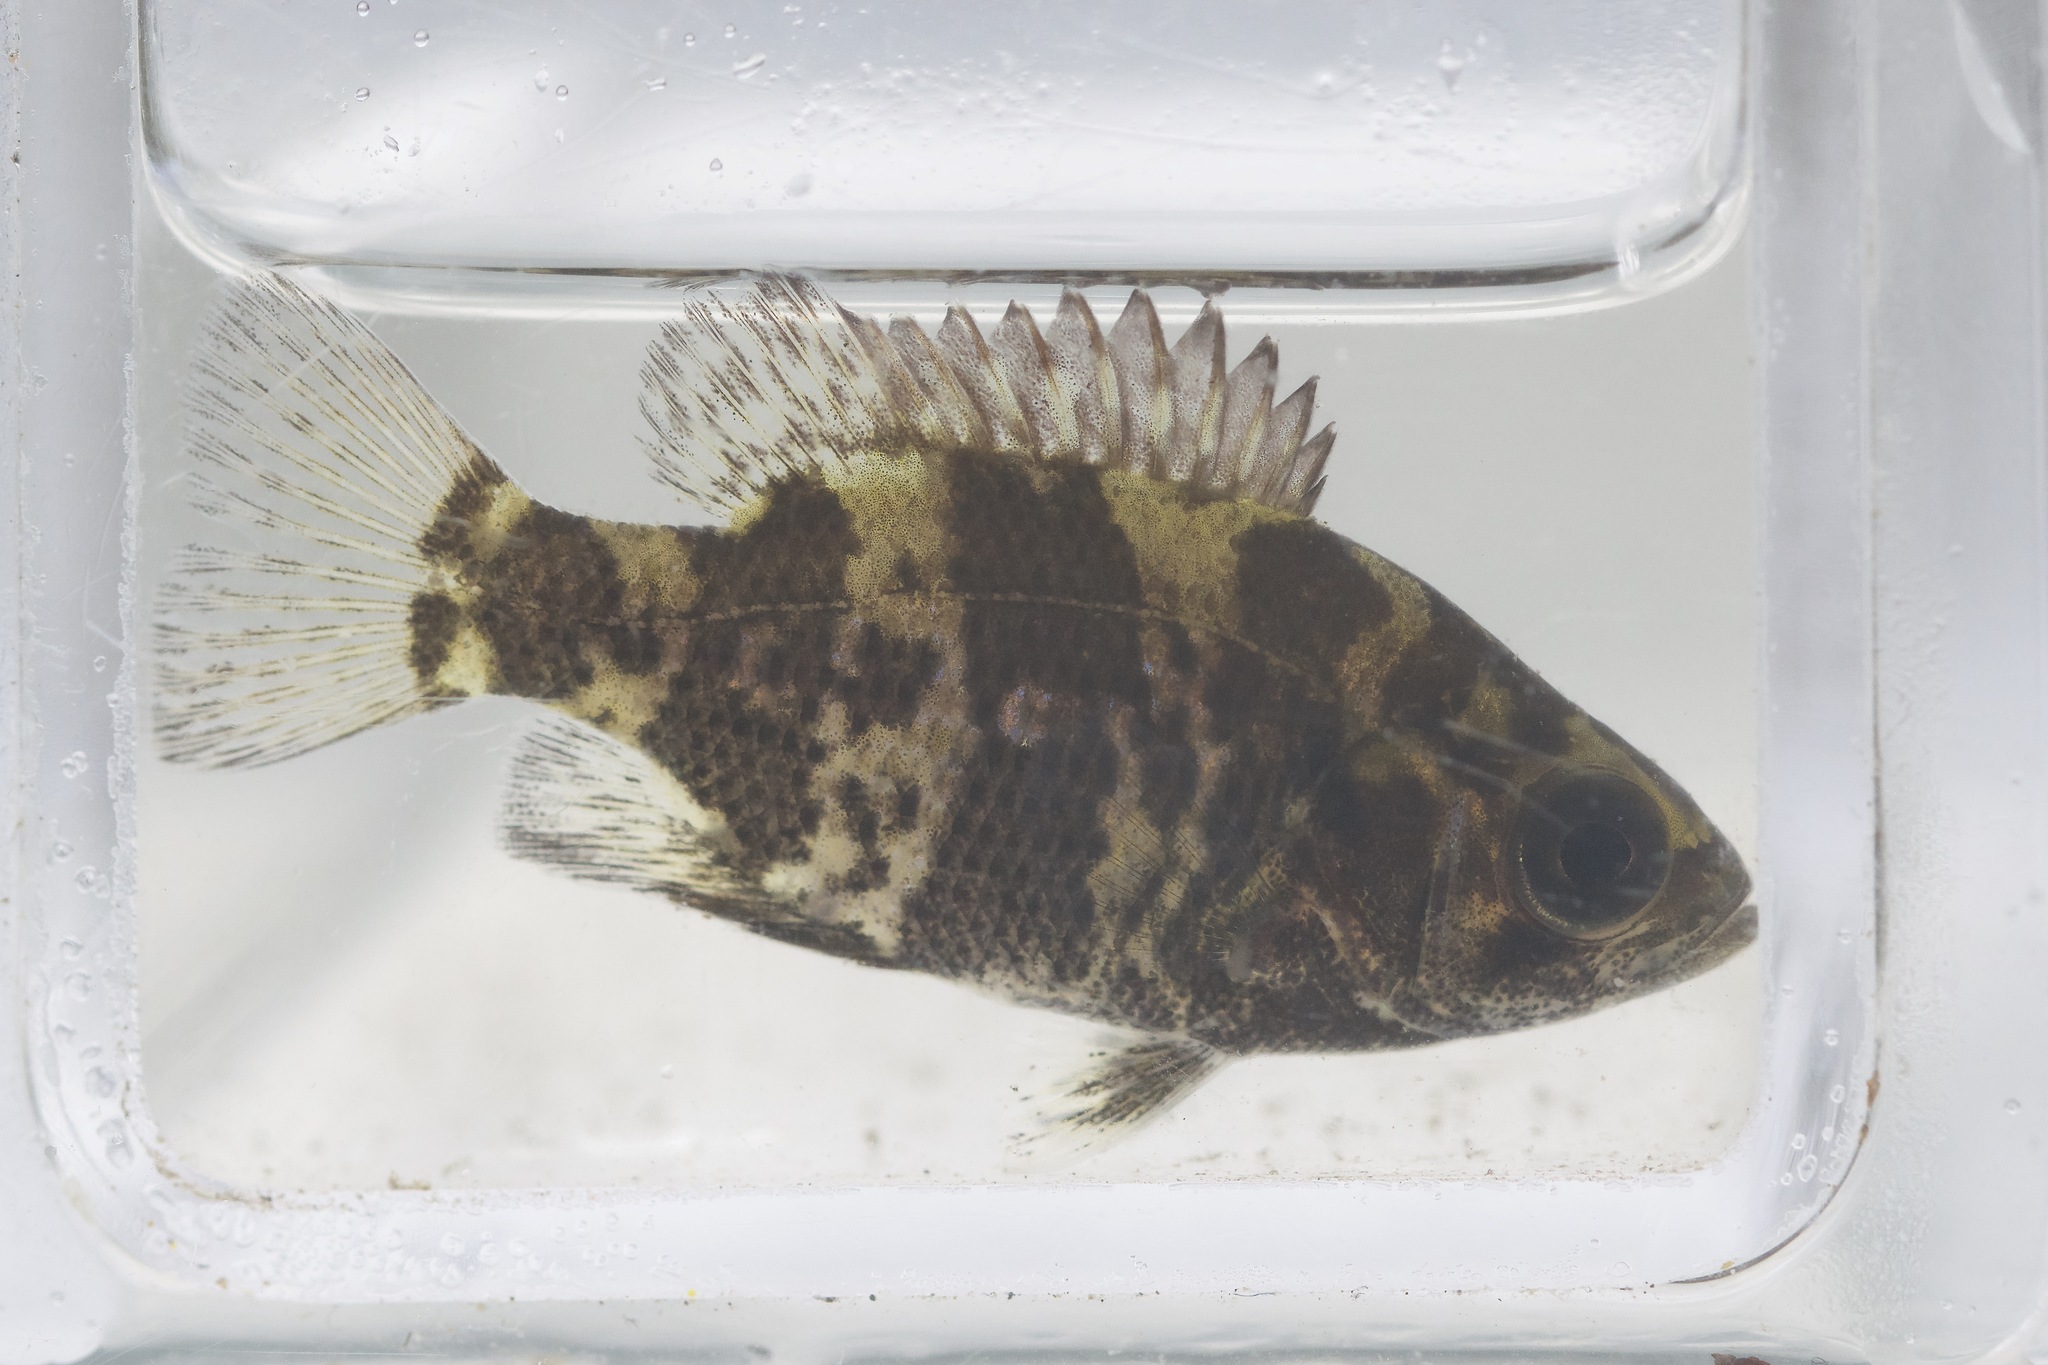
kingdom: Animalia
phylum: Chordata
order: Perciformes
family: Centrarchidae
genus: Ambloplites
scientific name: Ambloplites rupestris
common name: Rock bass
